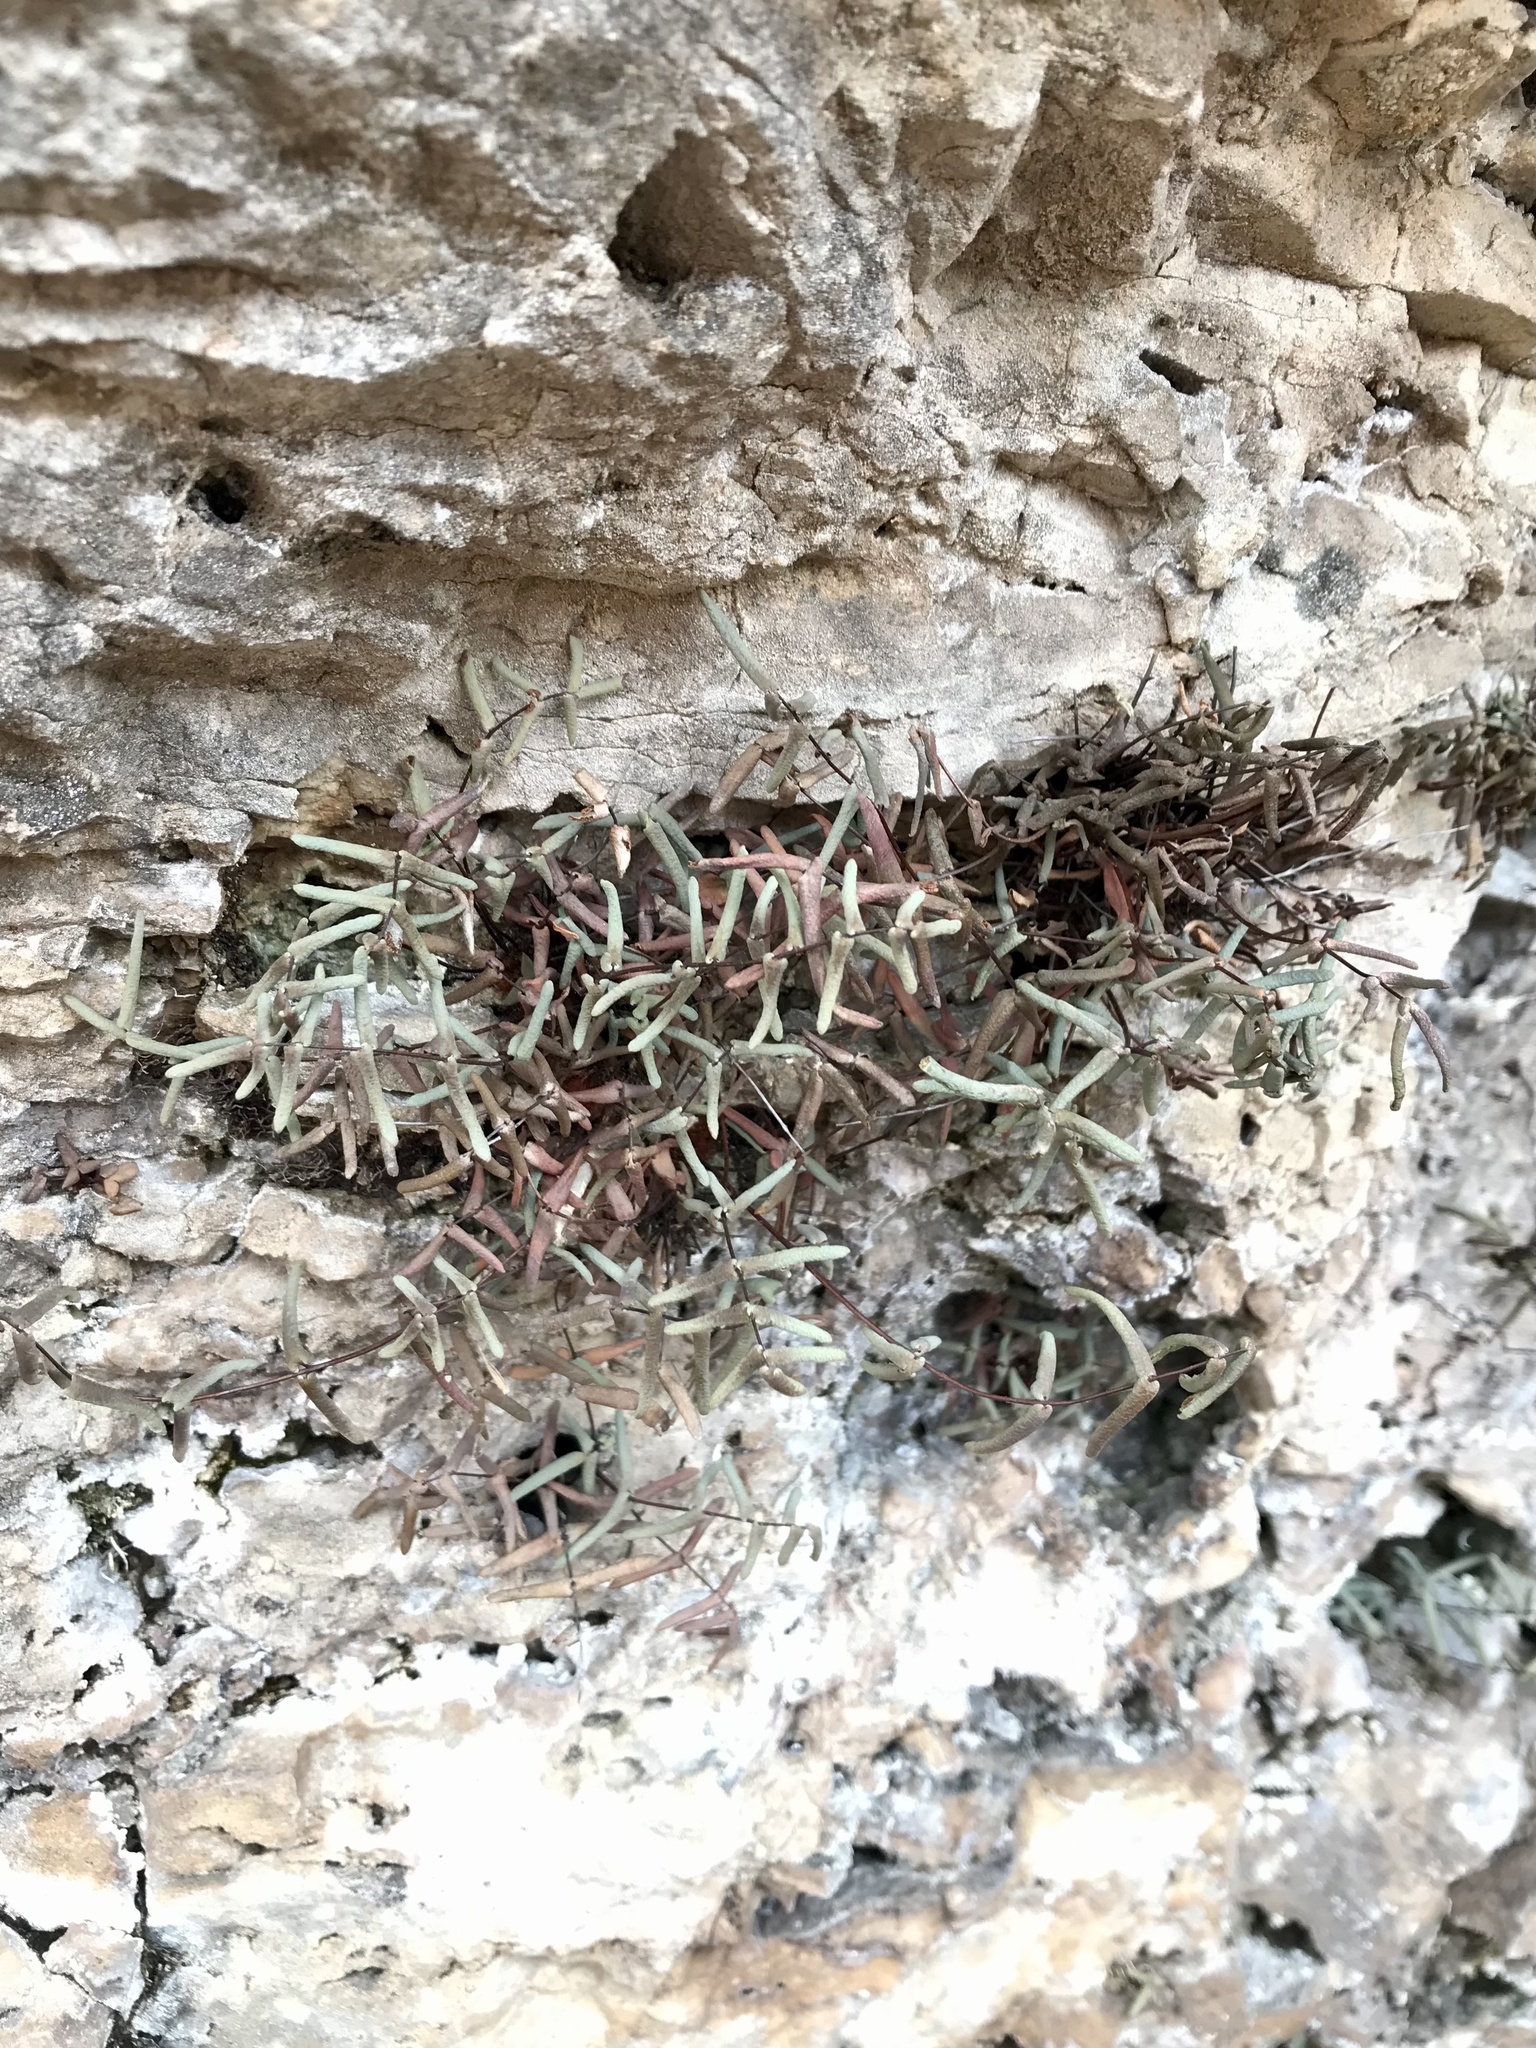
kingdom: Plantae
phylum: Tracheophyta
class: Polypodiopsida
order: Polypodiales
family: Pteridaceae
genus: Pellaea
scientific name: Pellaea glabella
